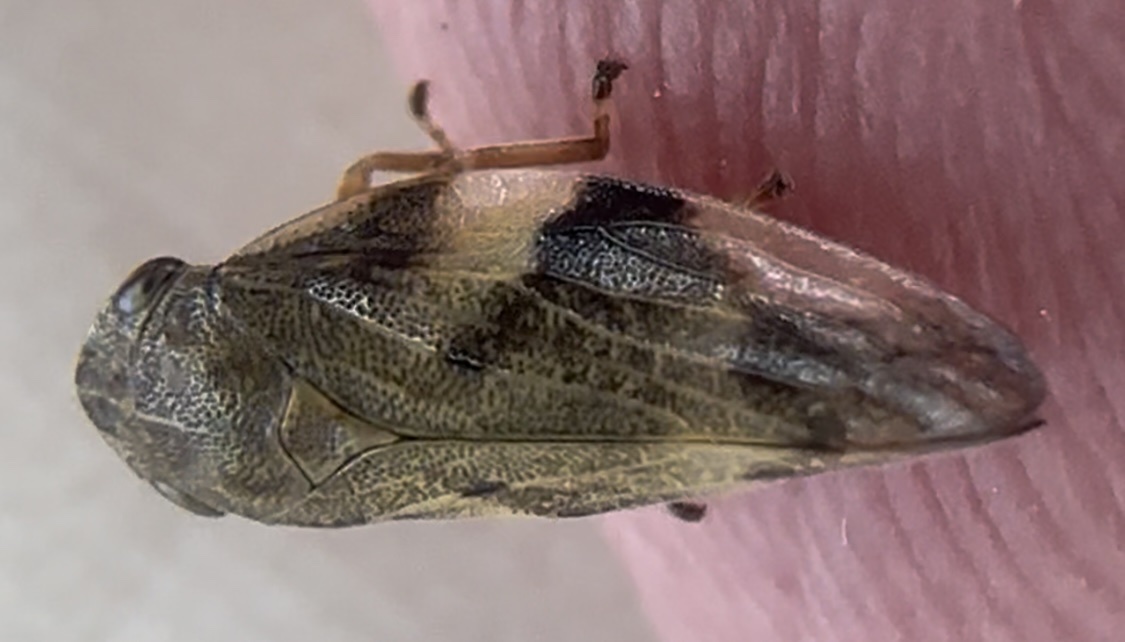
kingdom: Animalia
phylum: Arthropoda
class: Insecta
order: Hemiptera
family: Aphrophoridae
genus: Aphrophora
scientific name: Aphrophora alni
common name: European alder spittlebug
